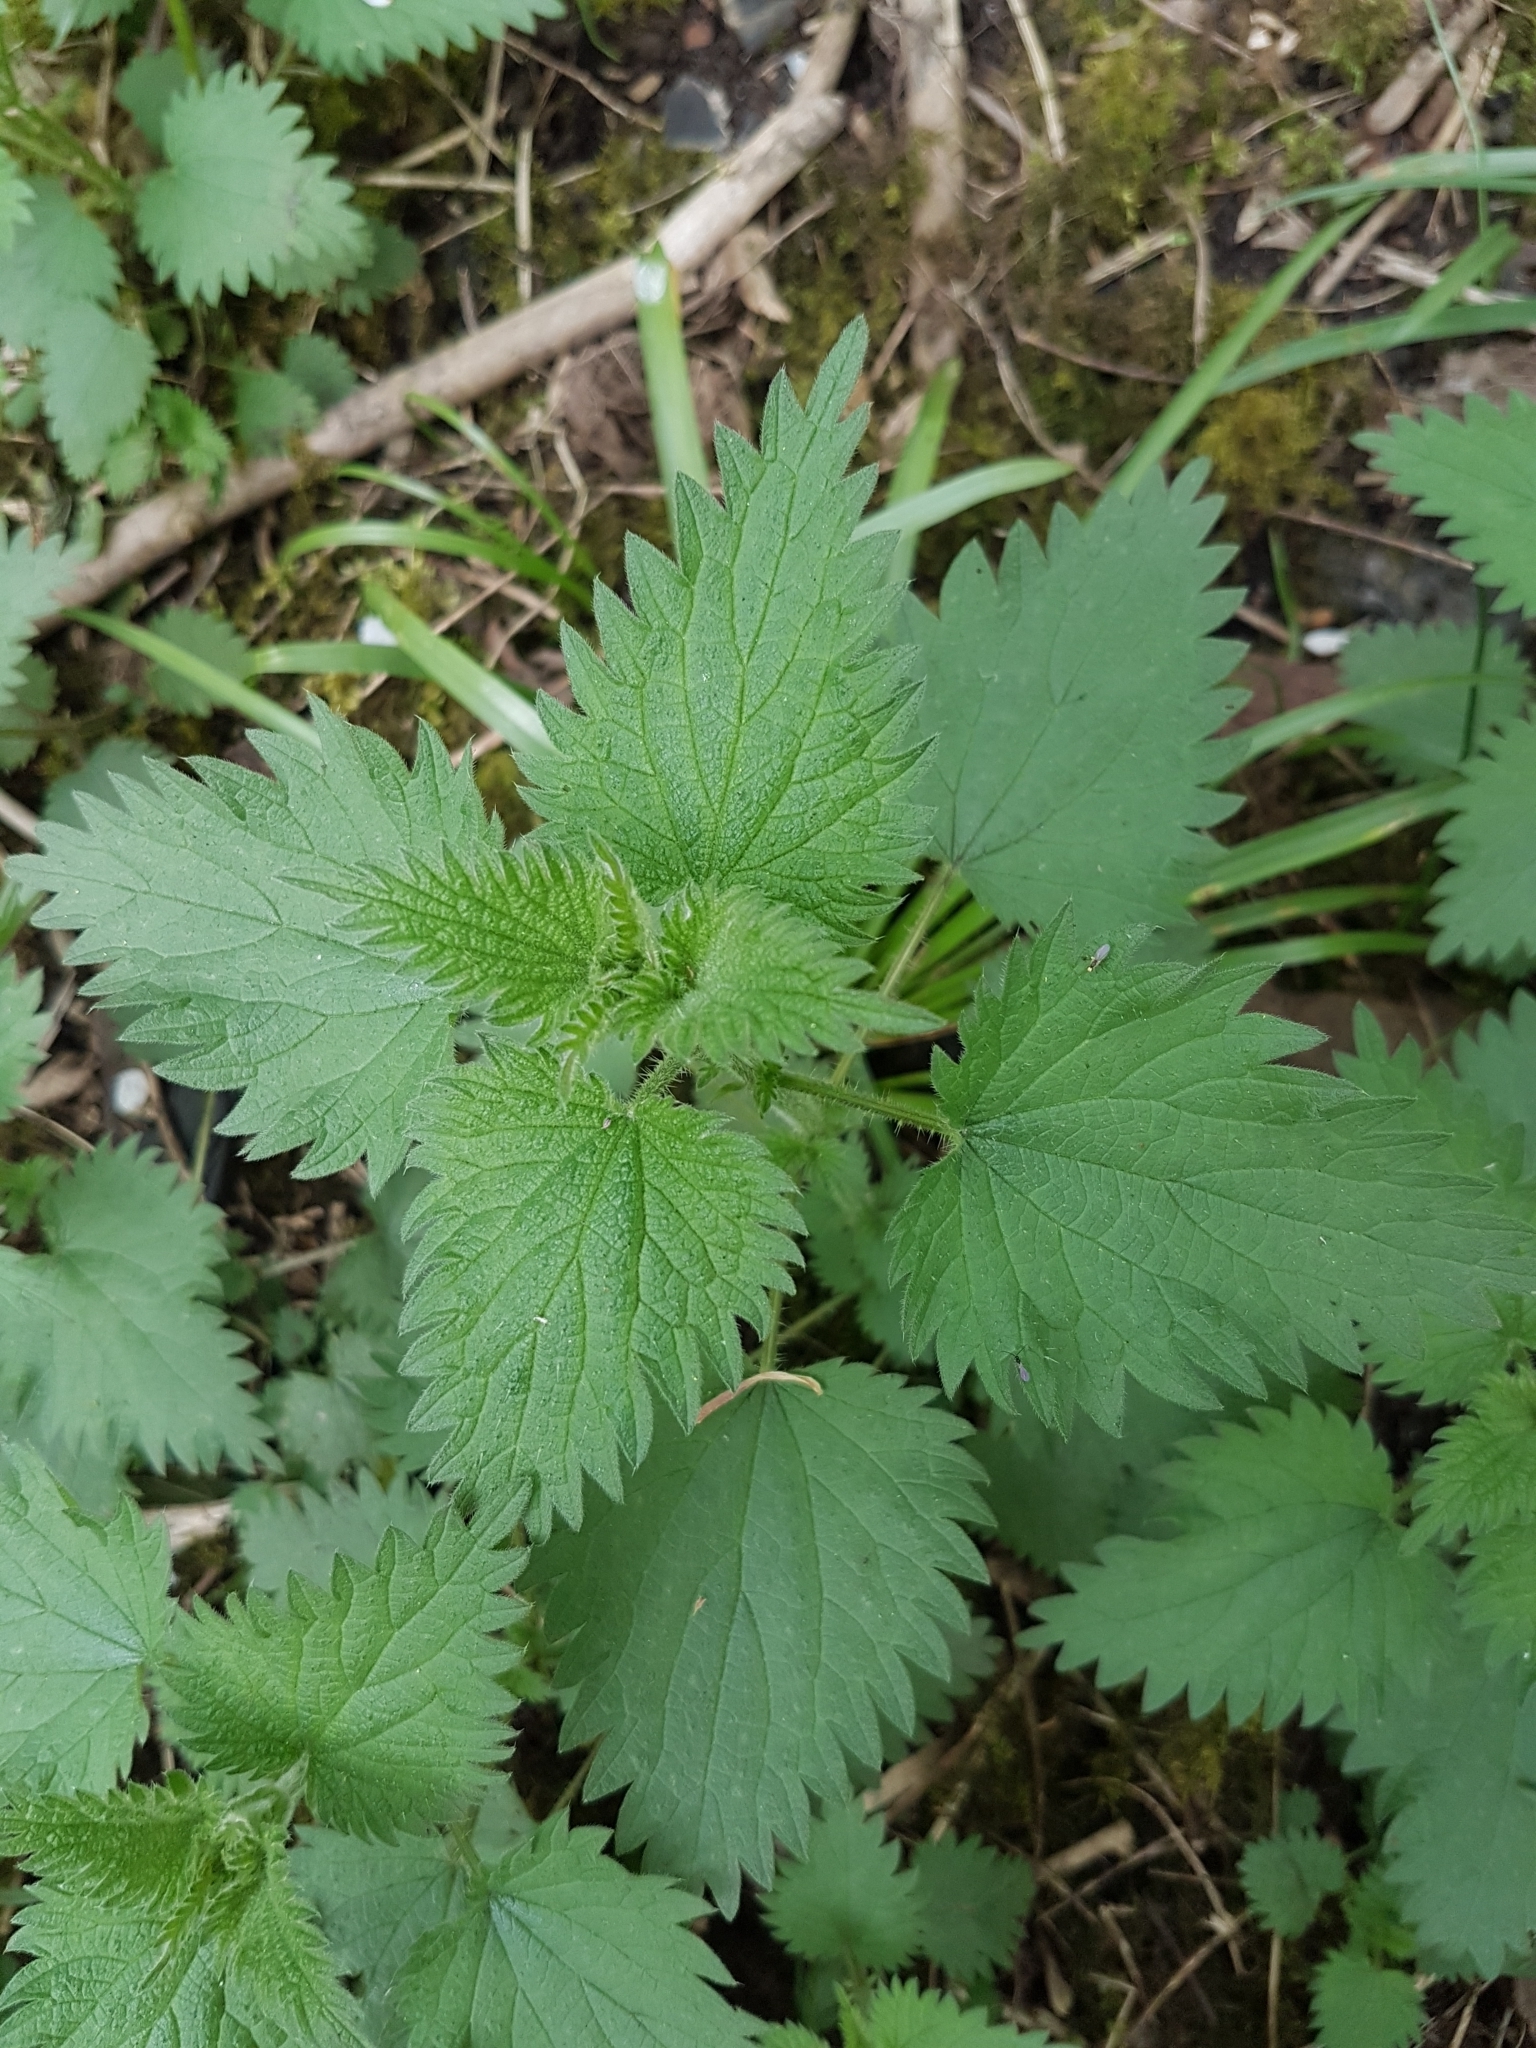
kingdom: Plantae
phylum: Tracheophyta
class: Magnoliopsida
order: Rosales
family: Urticaceae
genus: Urtica
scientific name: Urtica dioica
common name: Common nettle
